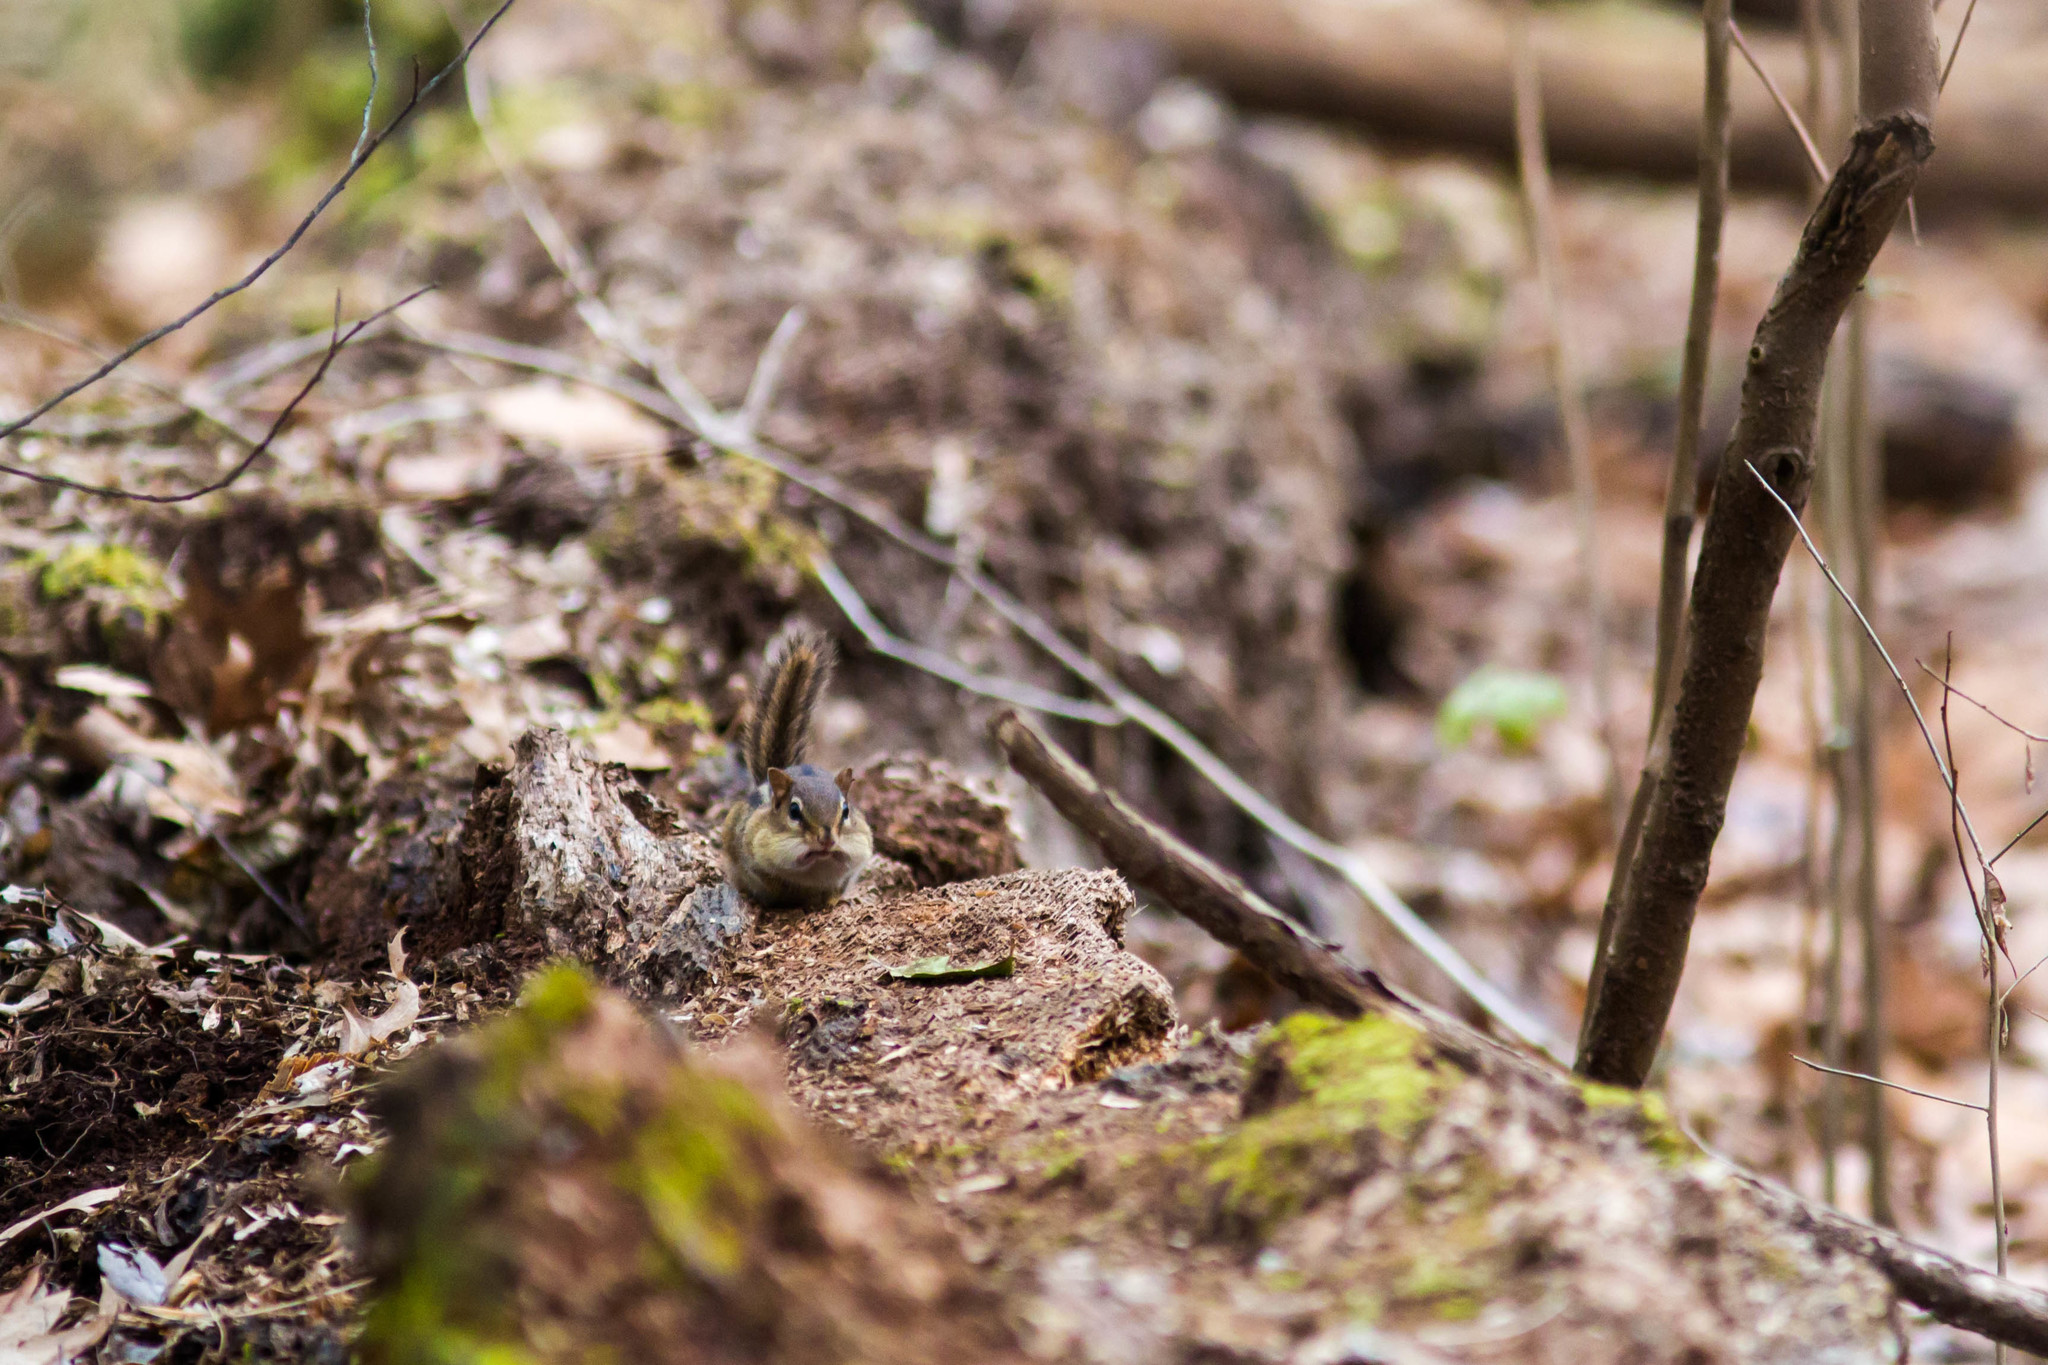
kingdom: Animalia
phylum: Chordata
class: Mammalia
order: Rodentia
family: Sciuridae
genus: Tamias
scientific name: Tamias striatus
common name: Eastern chipmunk
